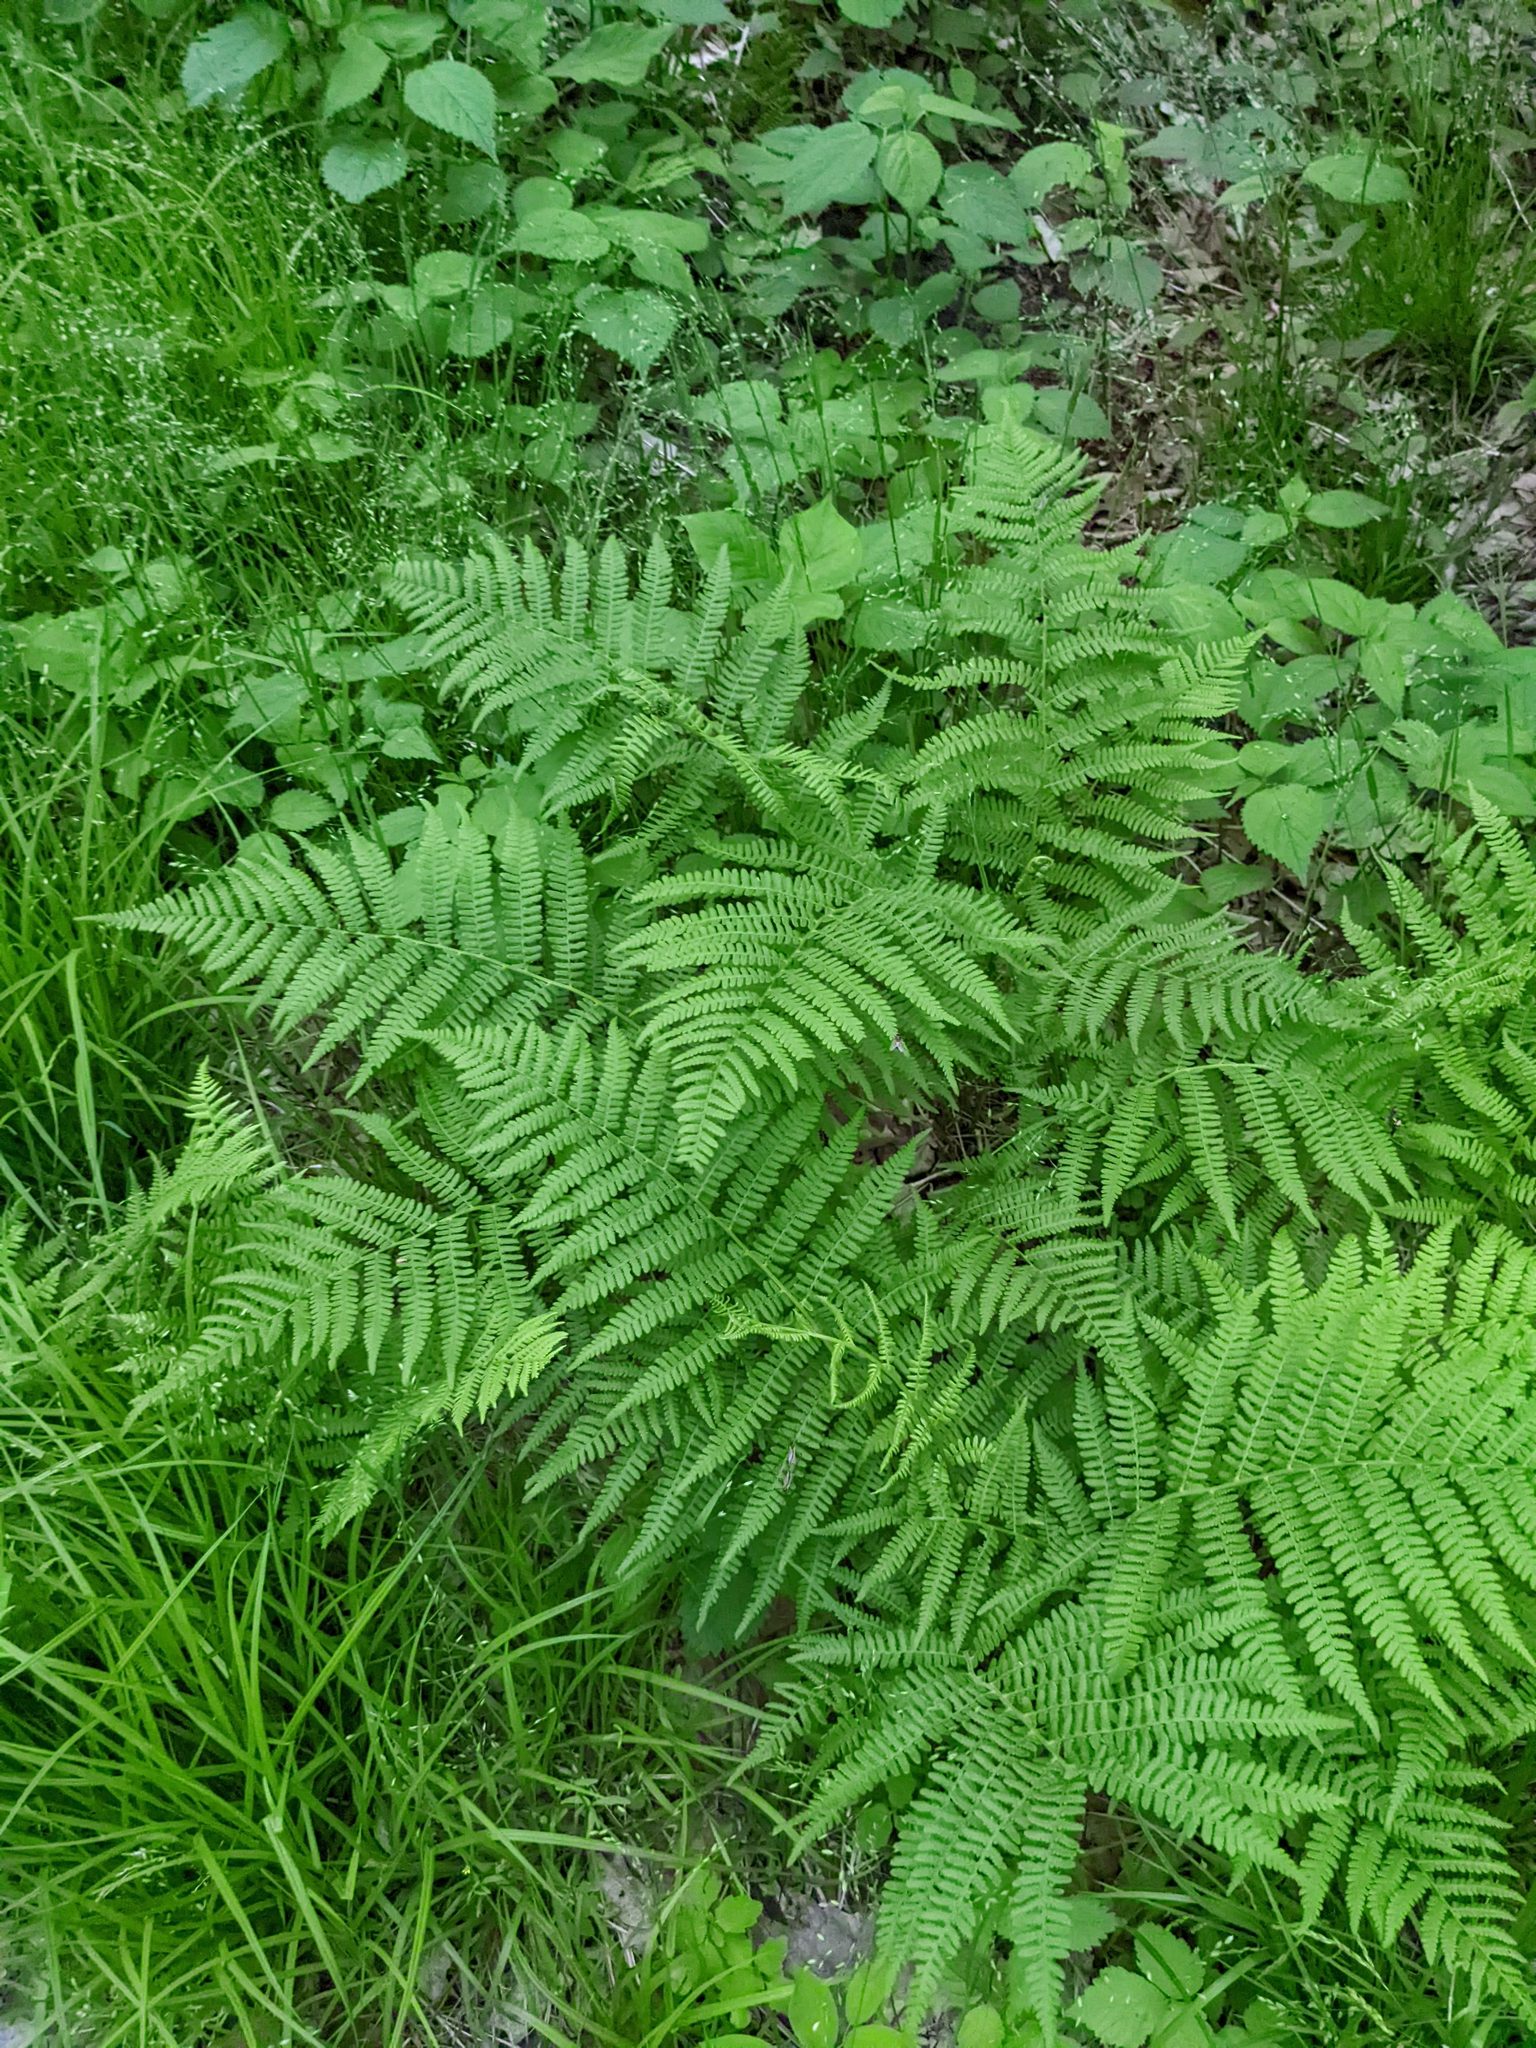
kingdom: Plantae
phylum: Tracheophyta
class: Polypodiopsida
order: Polypodiales
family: Athyriaceae
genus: Athyrium
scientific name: Athyrium angustum
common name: Northern lady fern
